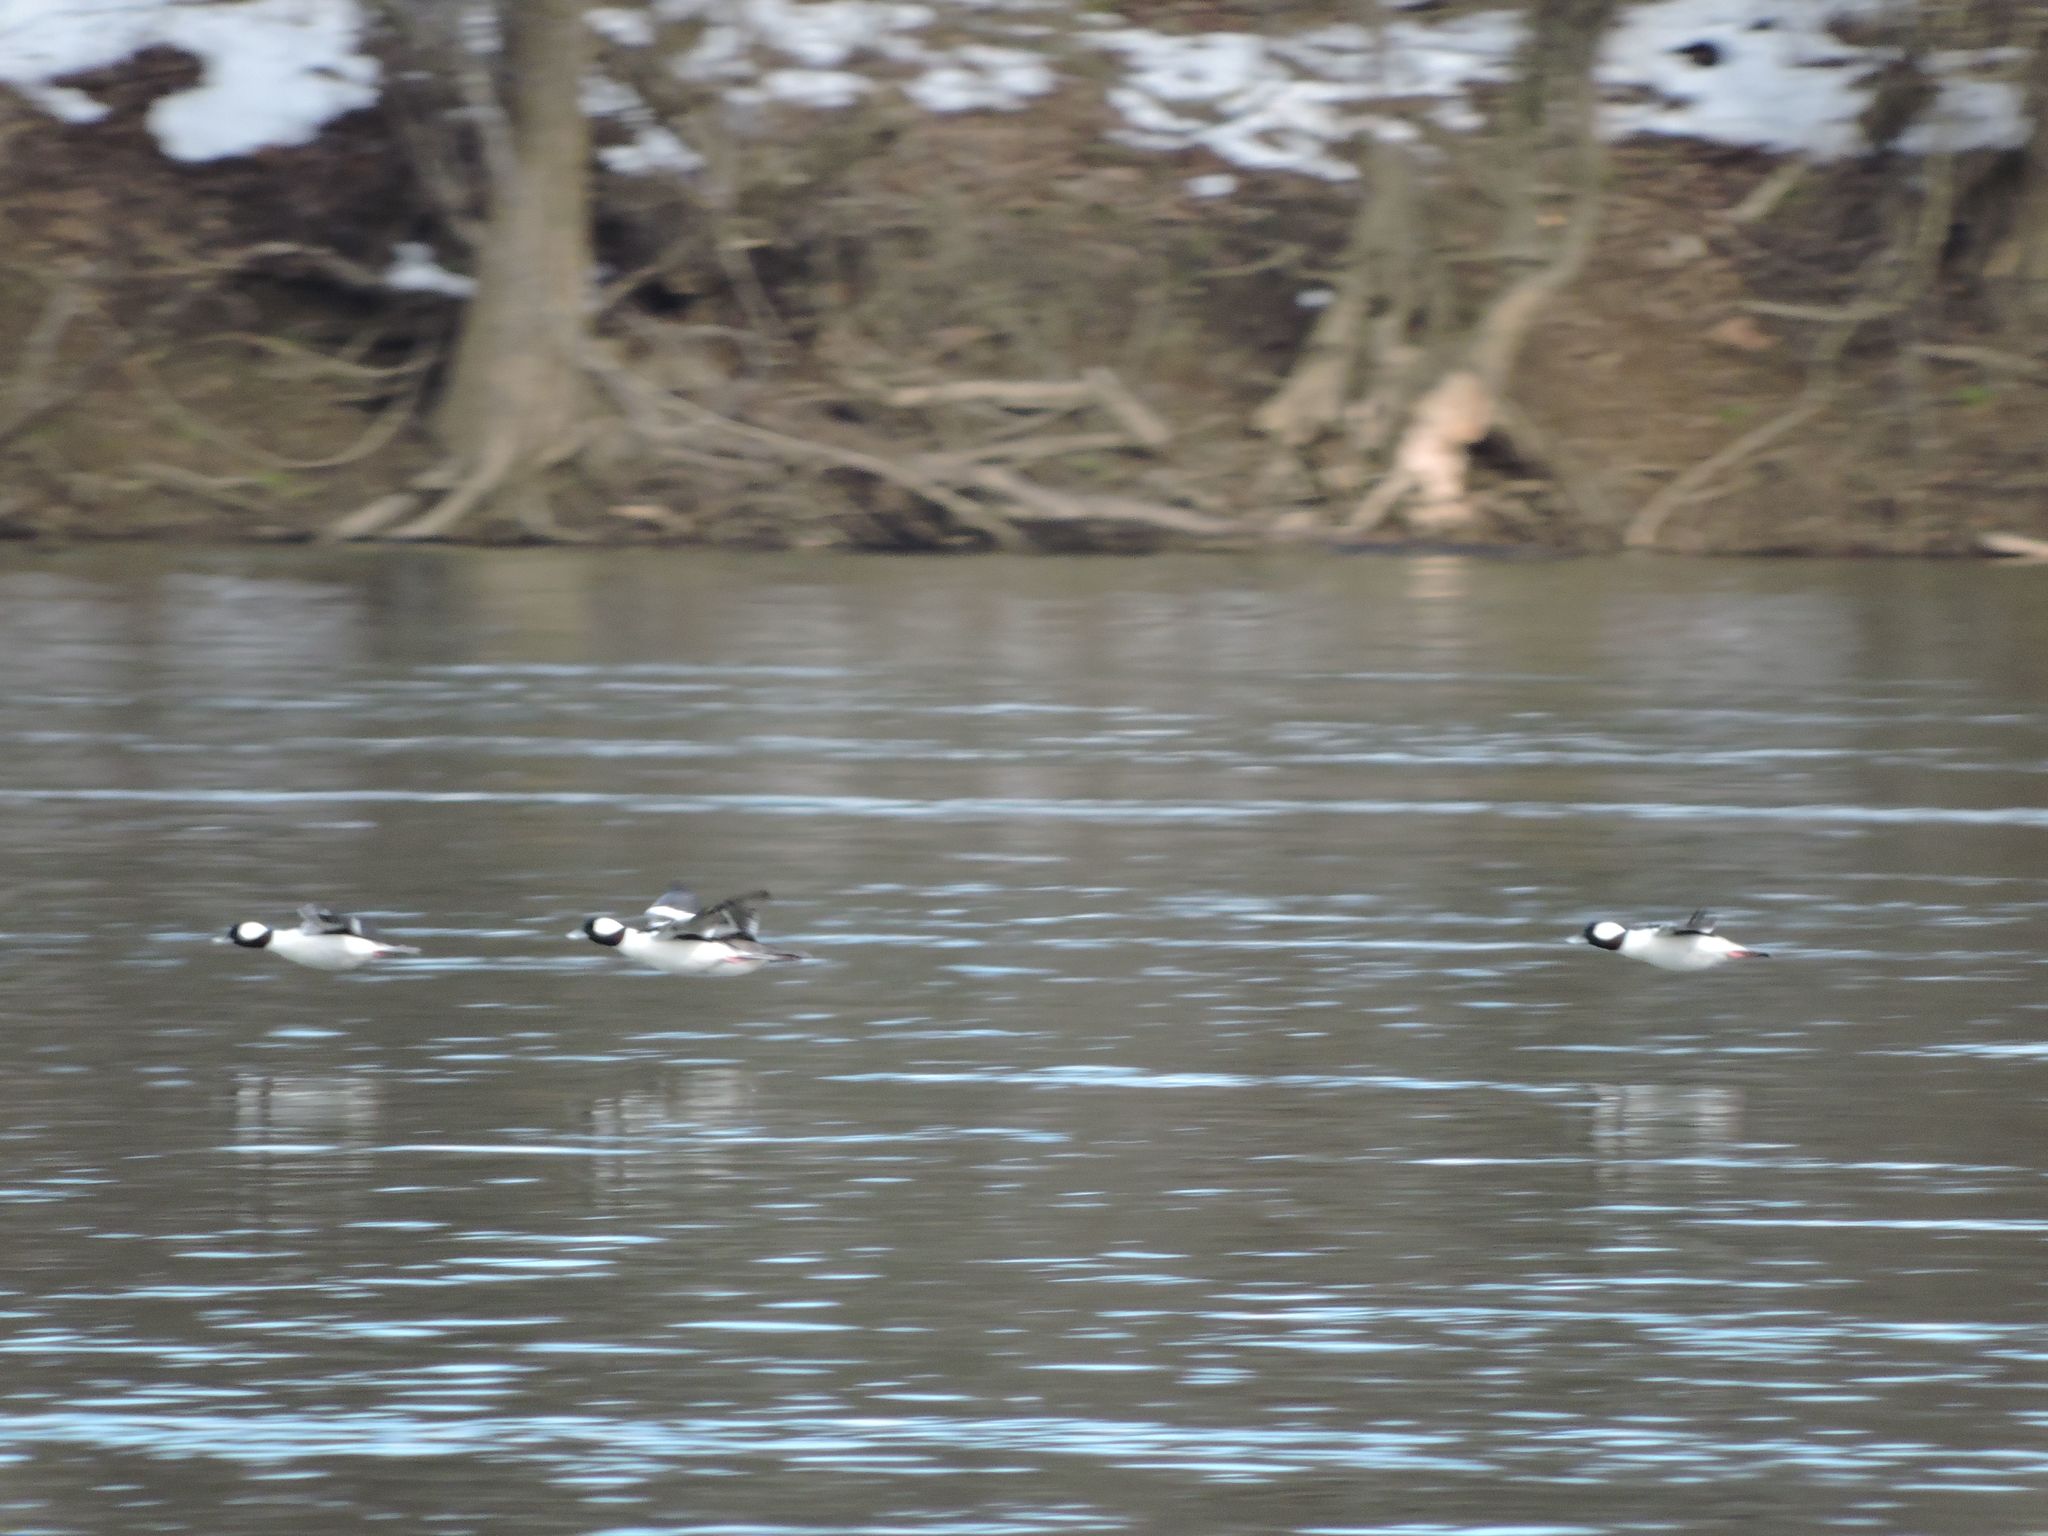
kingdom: Animalia
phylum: Chordata
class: Aves
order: Anseriformes
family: Anatidae
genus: Bucephala
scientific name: Bucephala albeola
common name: Bufflehead
